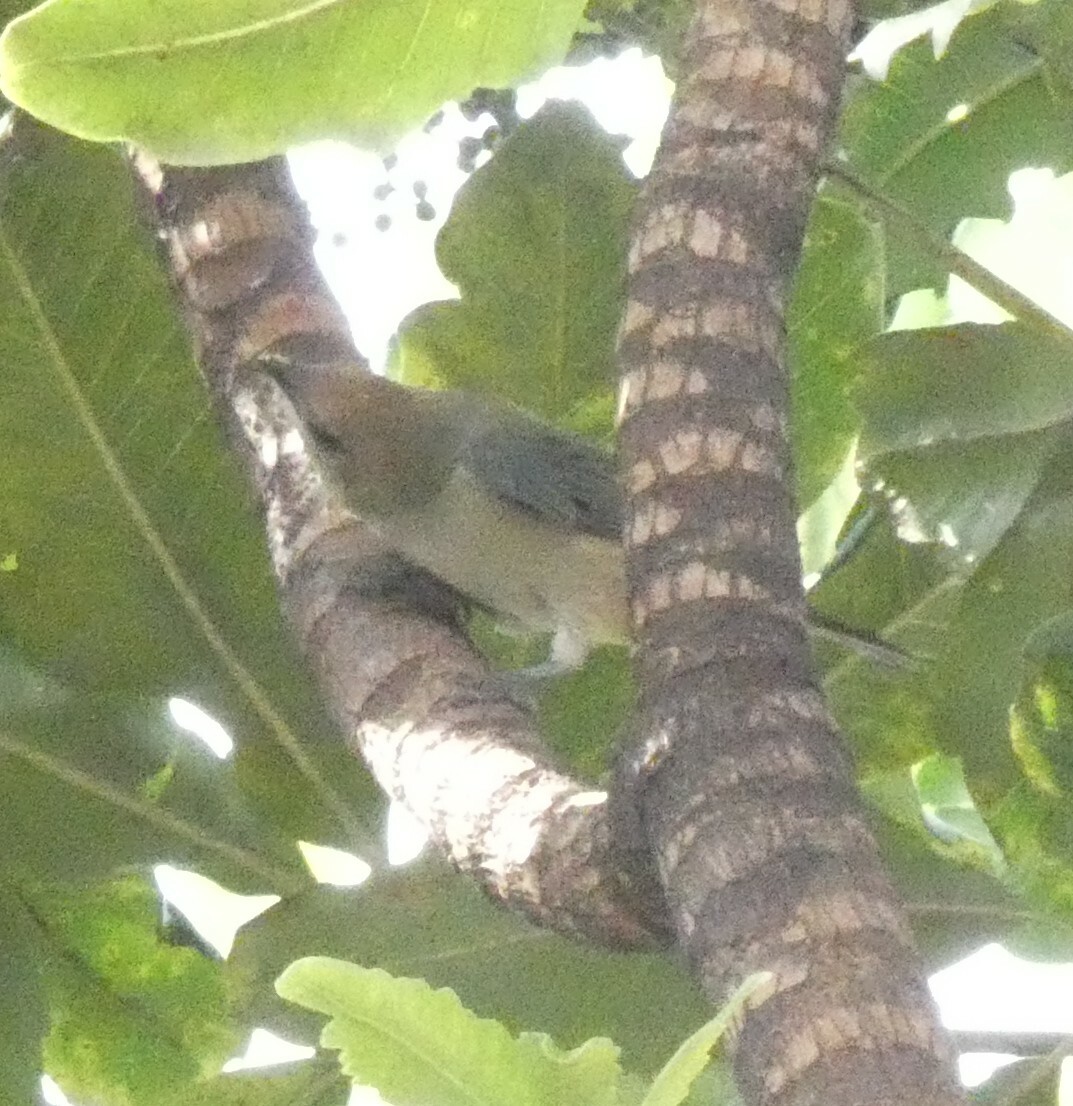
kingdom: Animalia
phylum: Chordata
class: Aves
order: Passeriformes
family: Thraupidae
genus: Stilpnia
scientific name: Stilpnia cayana
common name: Burnished-buff tanager
